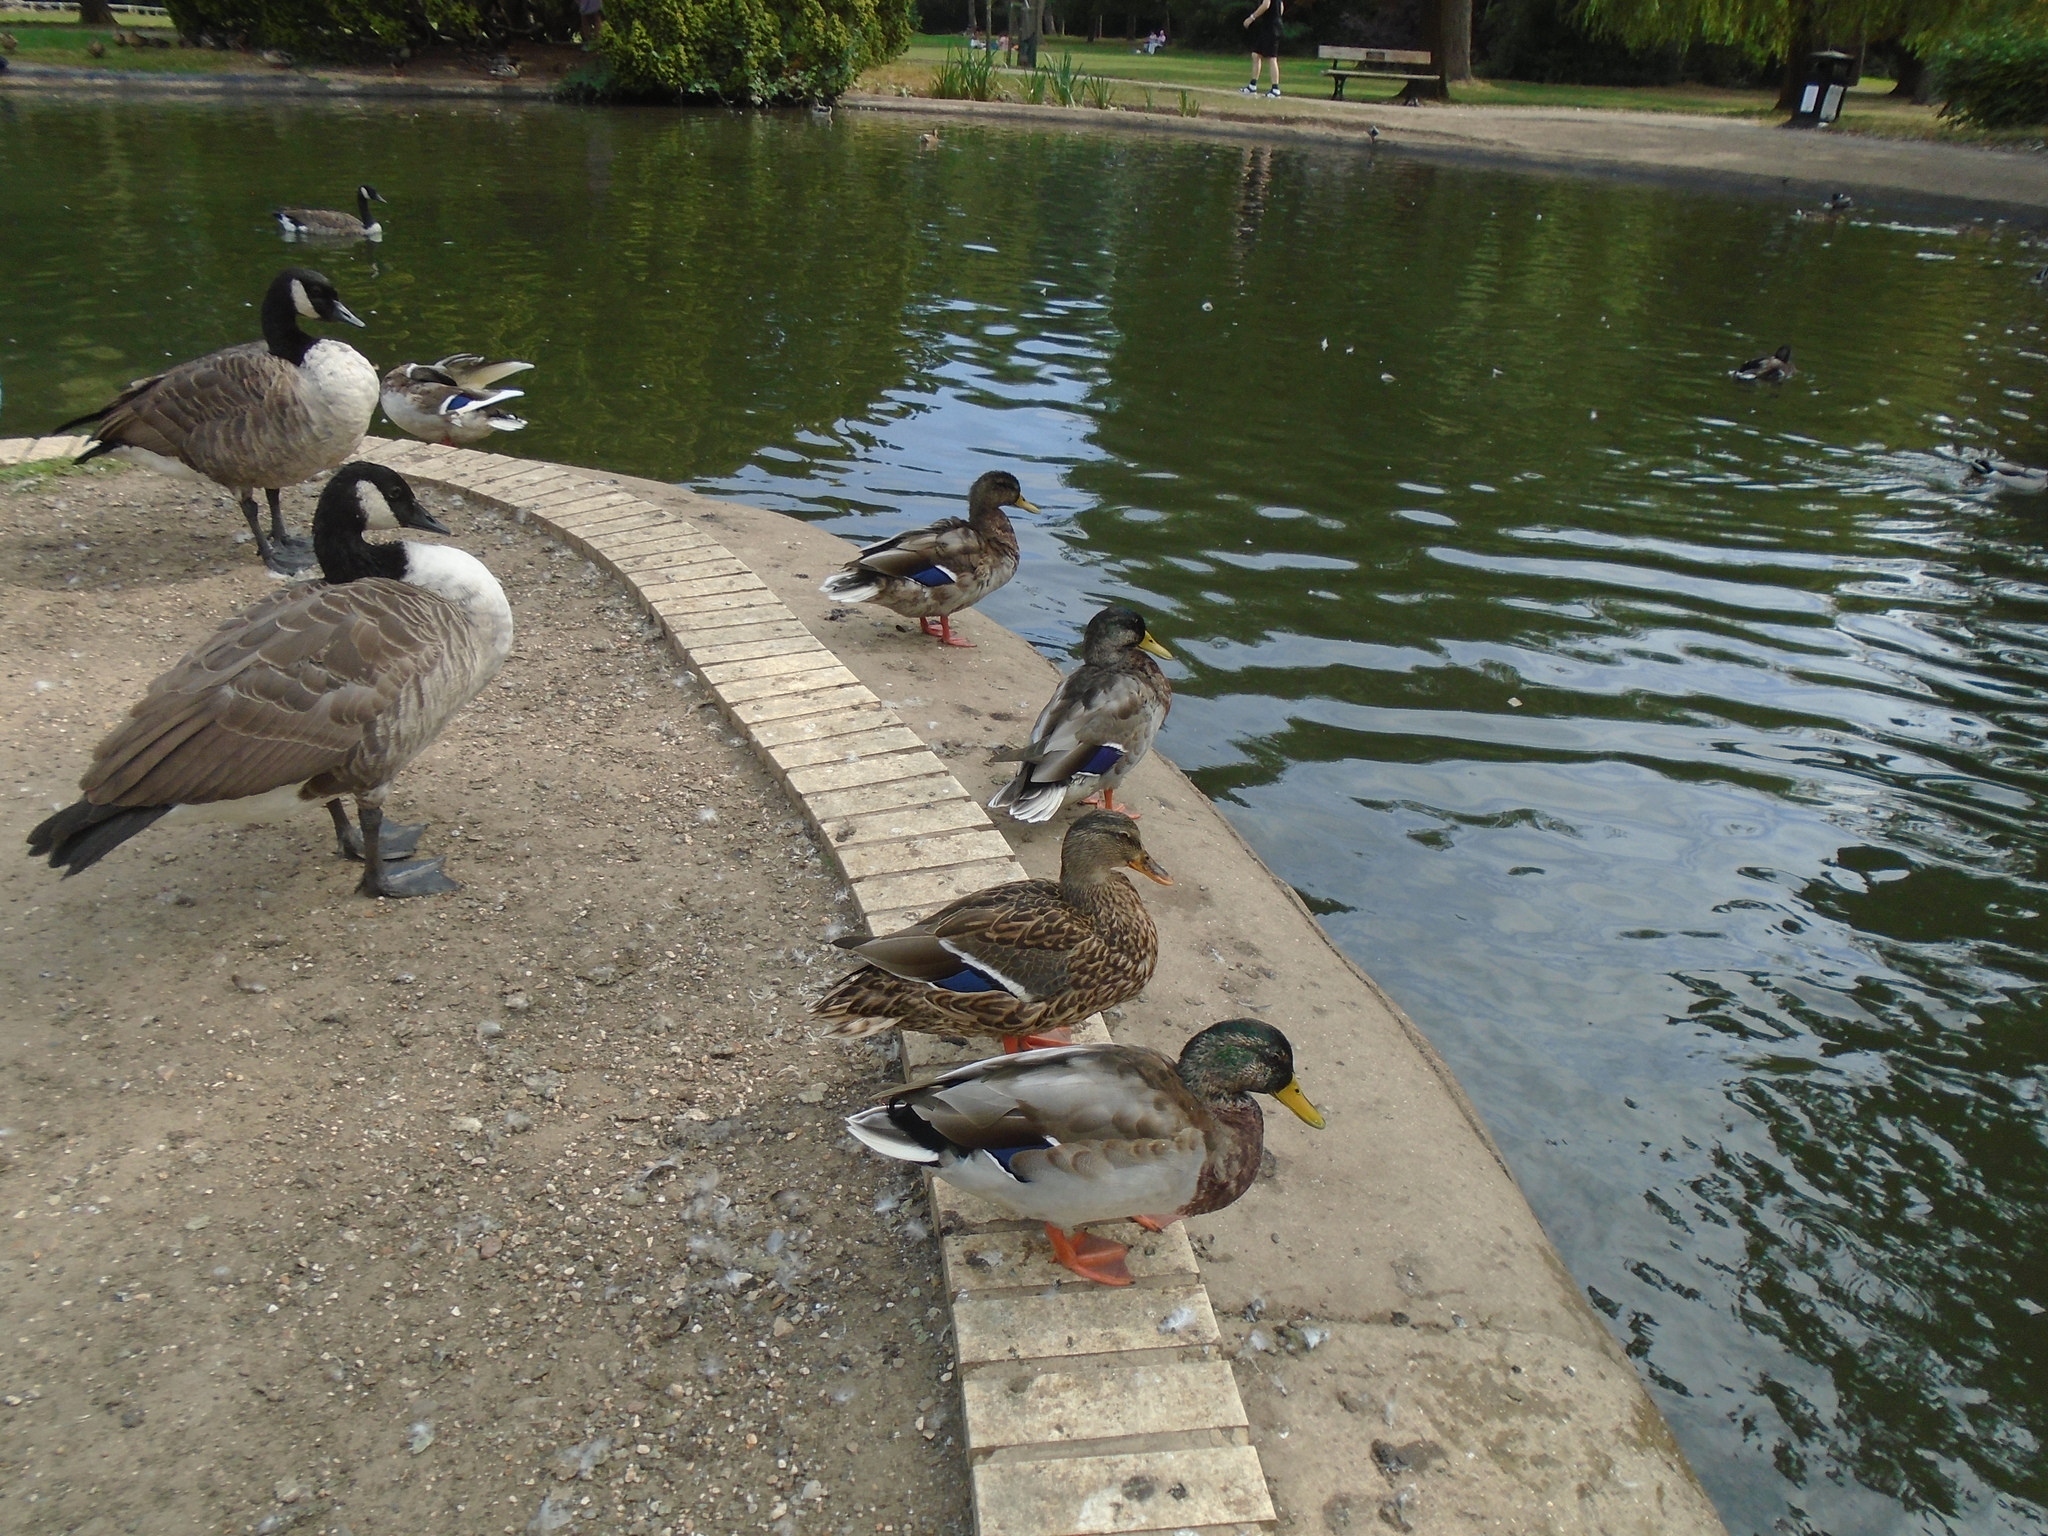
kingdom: Animalia
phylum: Chordata
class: Aves
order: Anseriformes
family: Anatidae
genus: Anas
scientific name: Anas platyrhynchos
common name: Mallard
